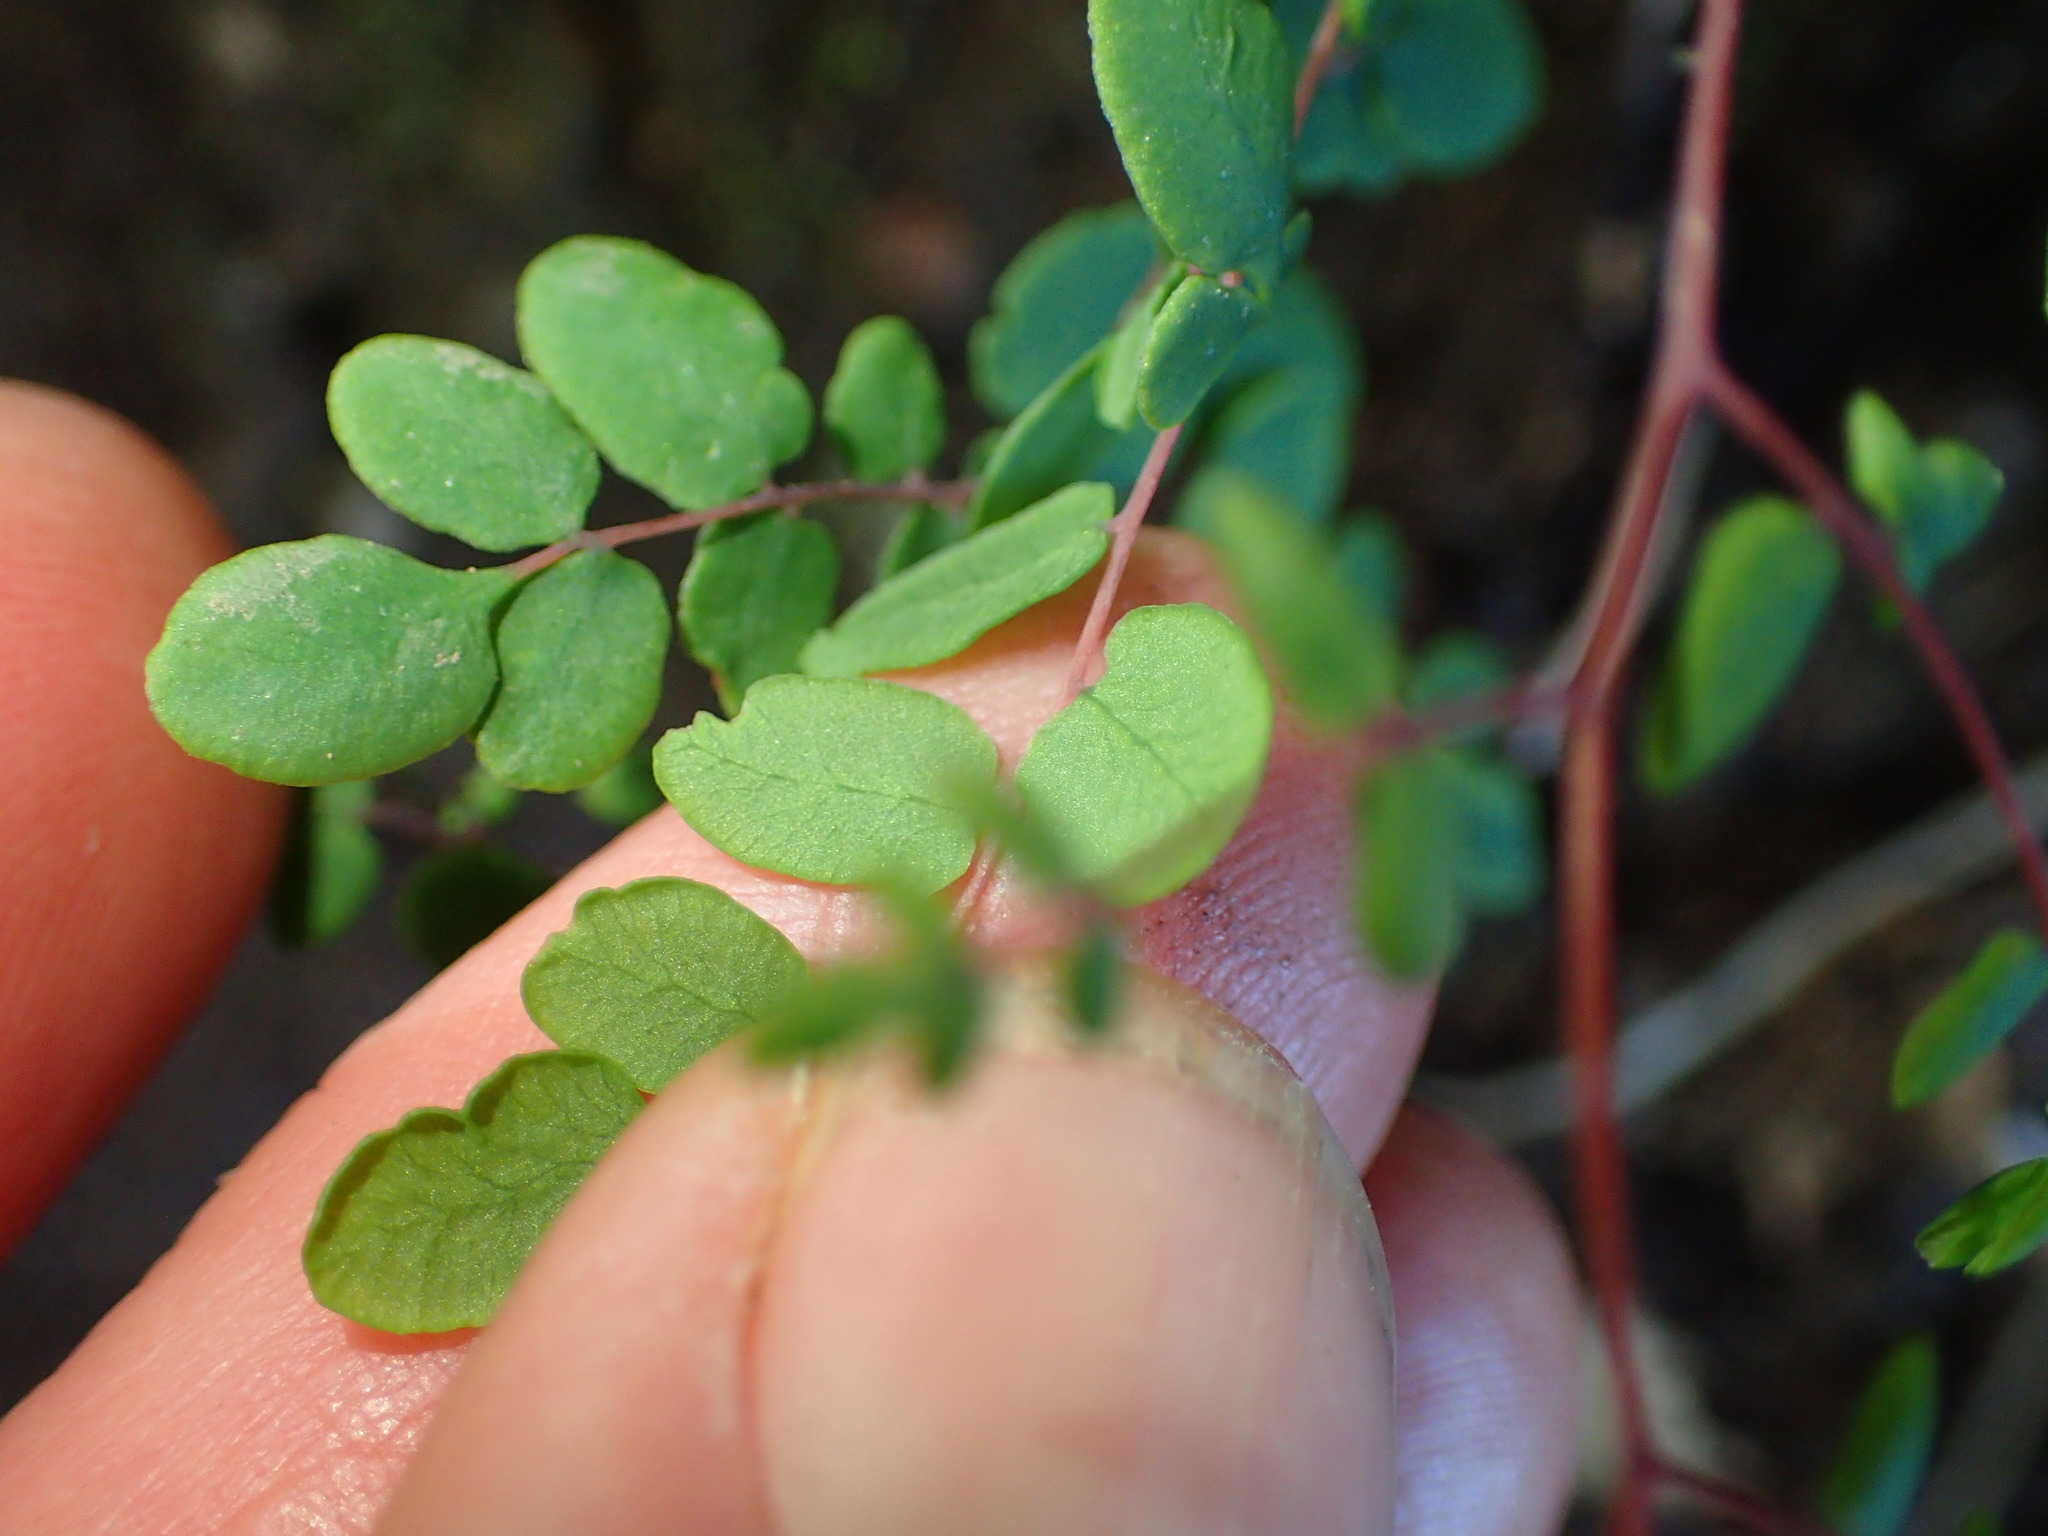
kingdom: Plantae
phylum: Tracheophyta
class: Polypodiopsida
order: Polypodiales
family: Pteridaceae
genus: Pellaea
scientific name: Pellaea andromedifolia
